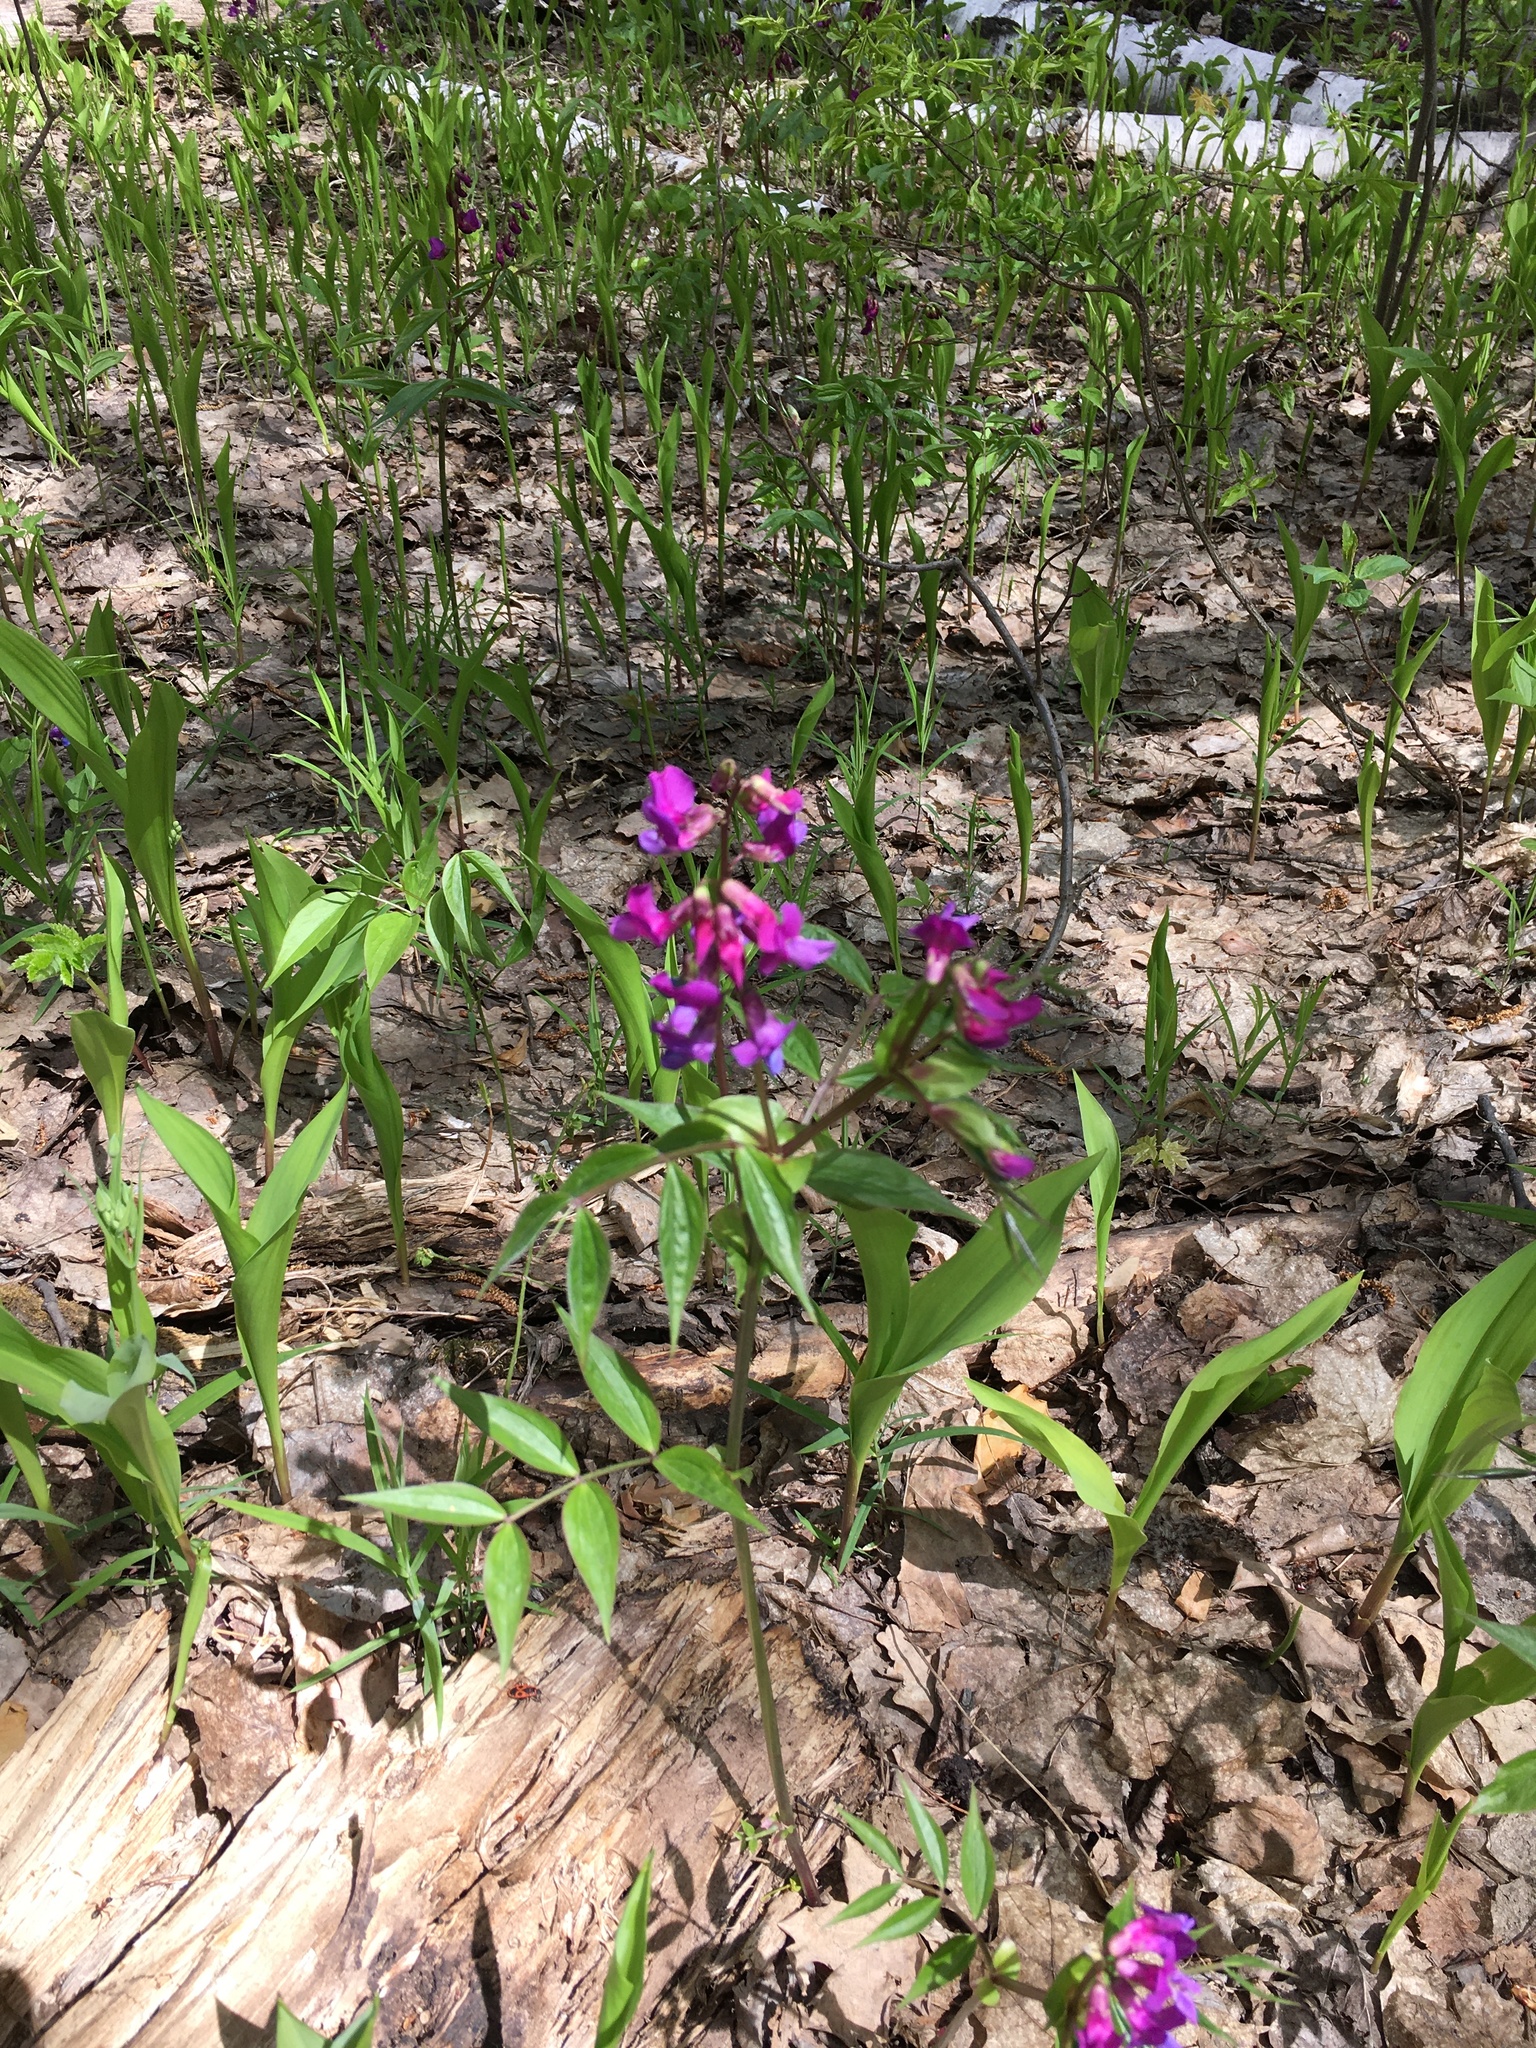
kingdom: Plantae
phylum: Tracheophyta
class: Magnoliopsida
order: Fabales
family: Fabaceae
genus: Lathyrus
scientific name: Lathyrus vernus
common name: Spring pea
